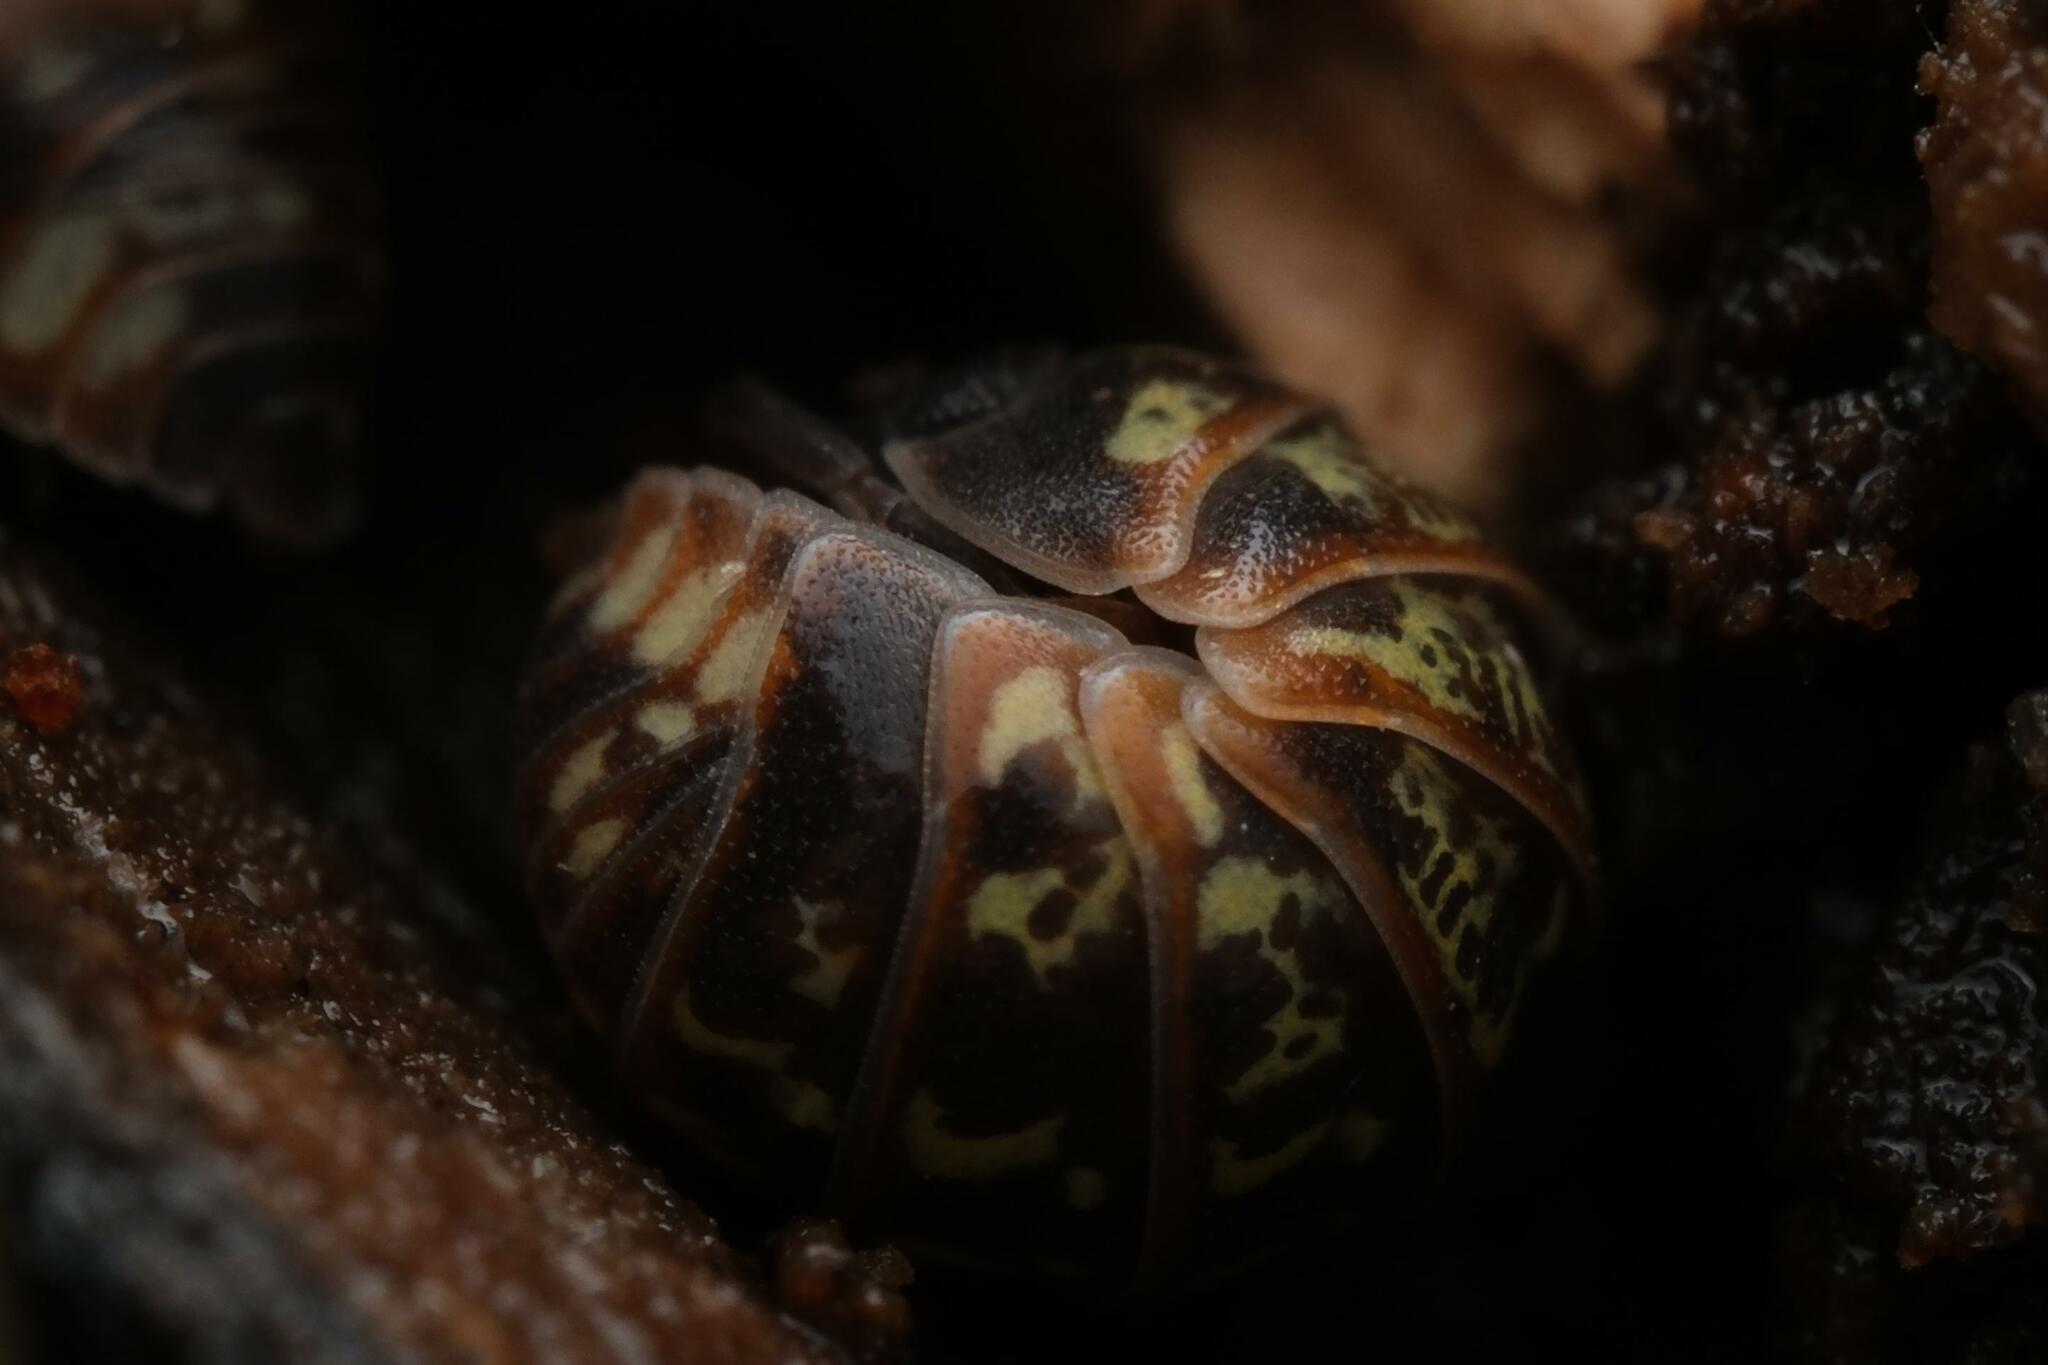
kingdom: Animalia
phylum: Arthropoda
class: Malacostraca
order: Isopoda
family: Armadillidiidae
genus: Armadillidium
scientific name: Armadillidium pulchellum
